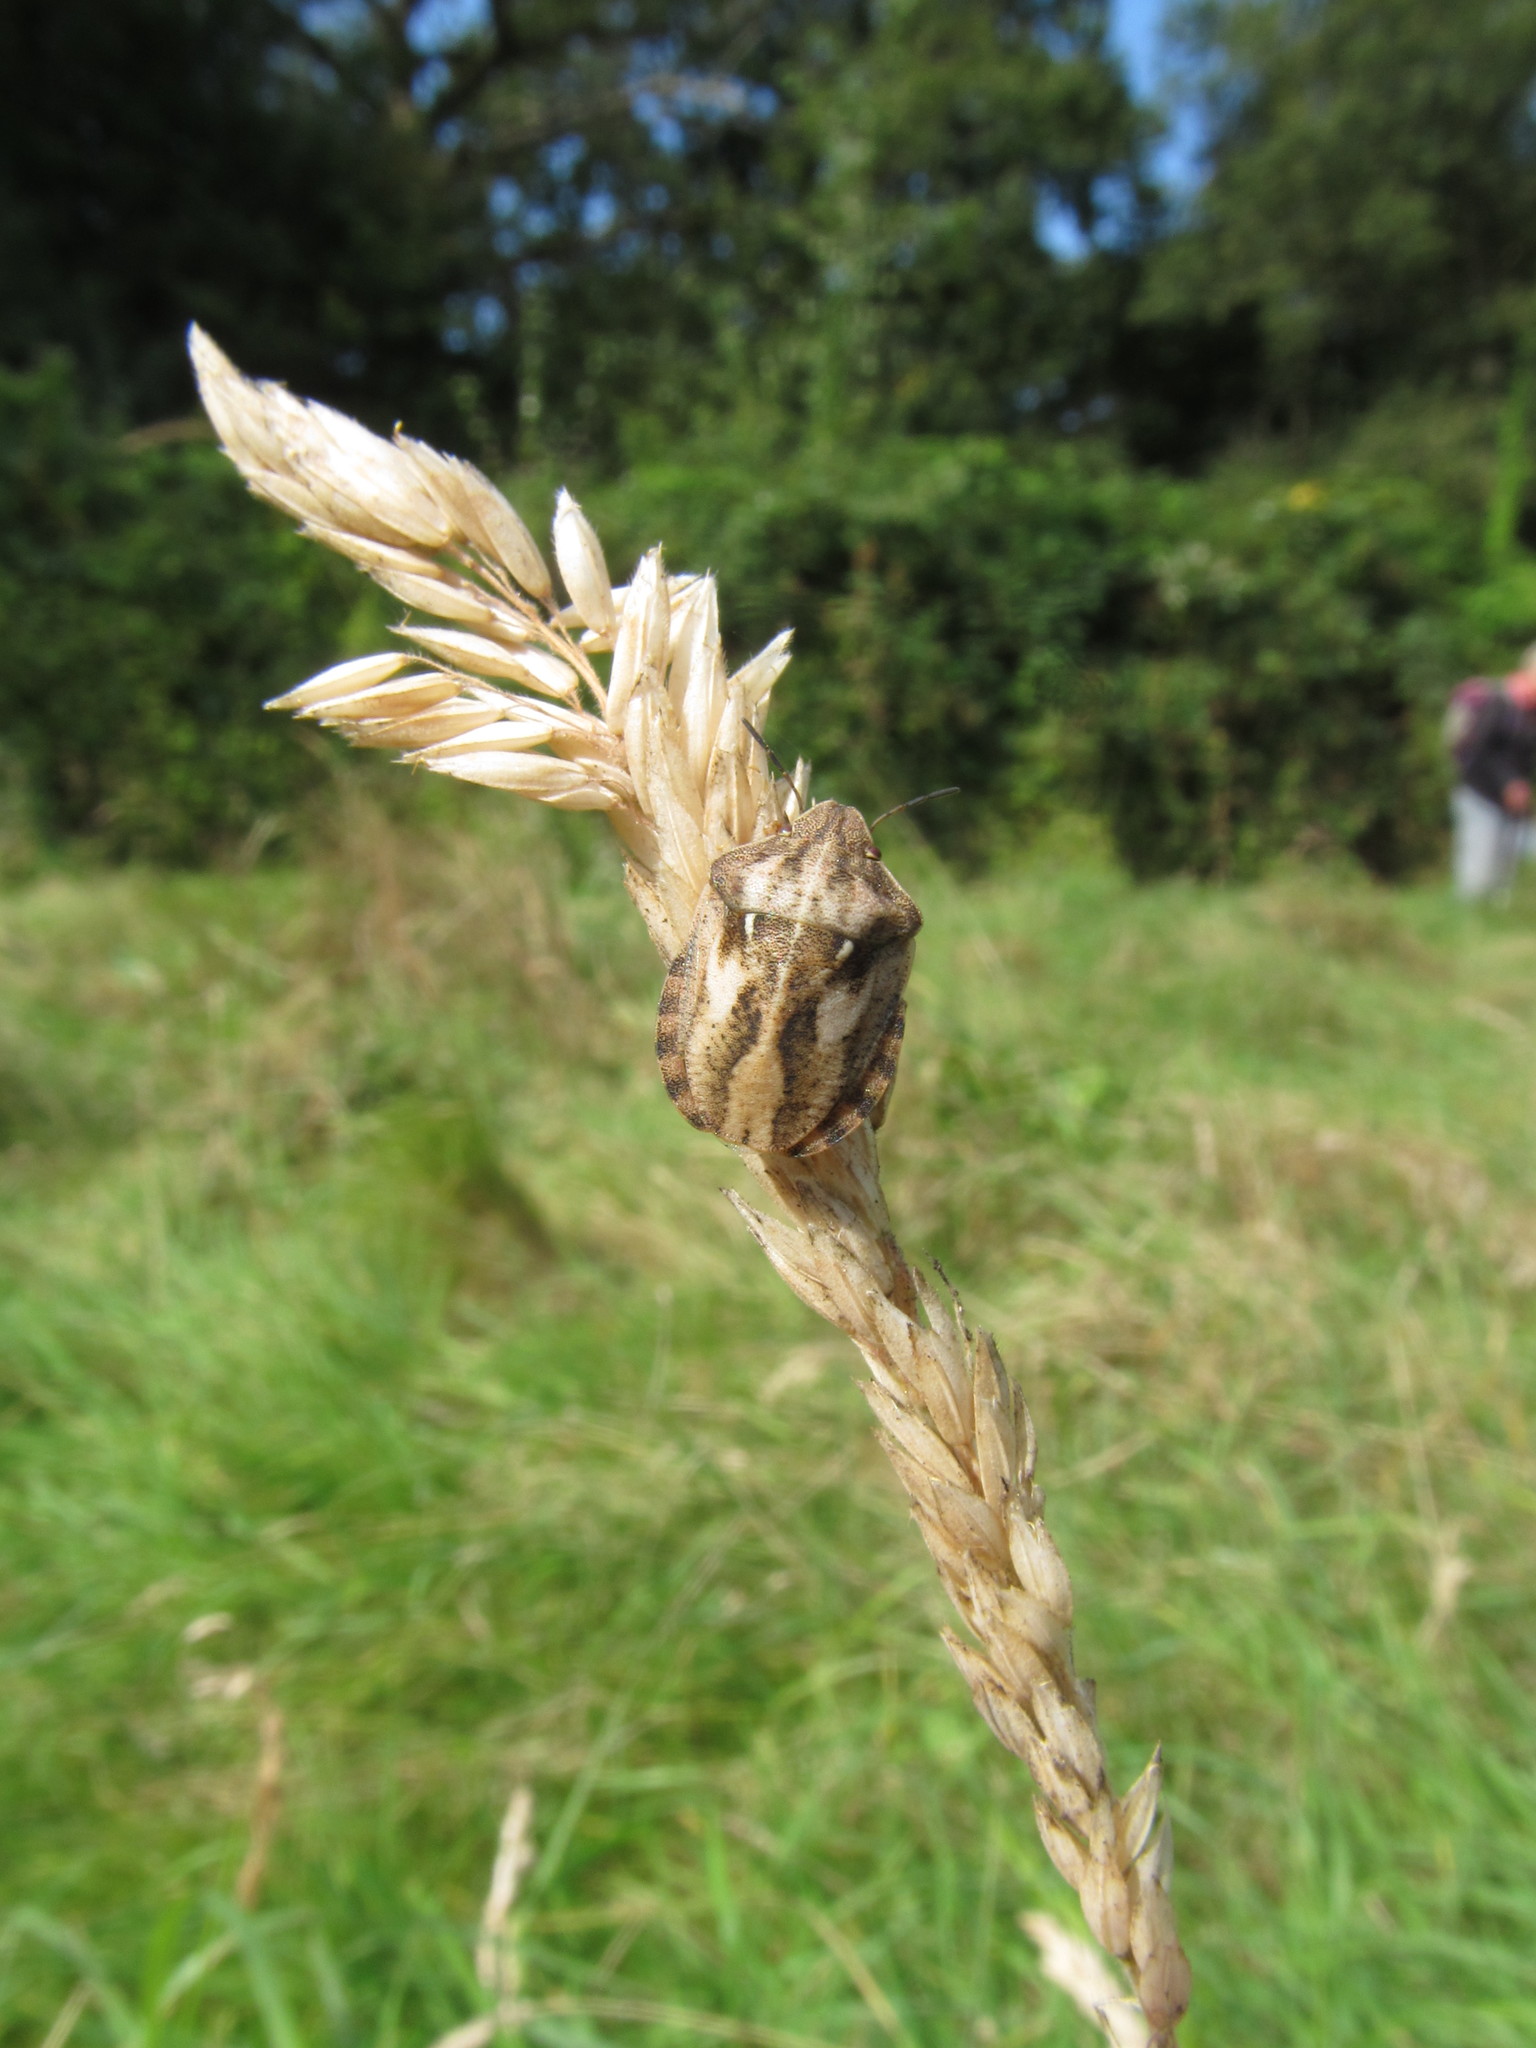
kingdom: Animalia
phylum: Arthropoda
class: Insecta
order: Hemiptera
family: Scutelleridae
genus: Eurygaster
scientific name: Eurygaster testudinaria
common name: Tortoise bug
